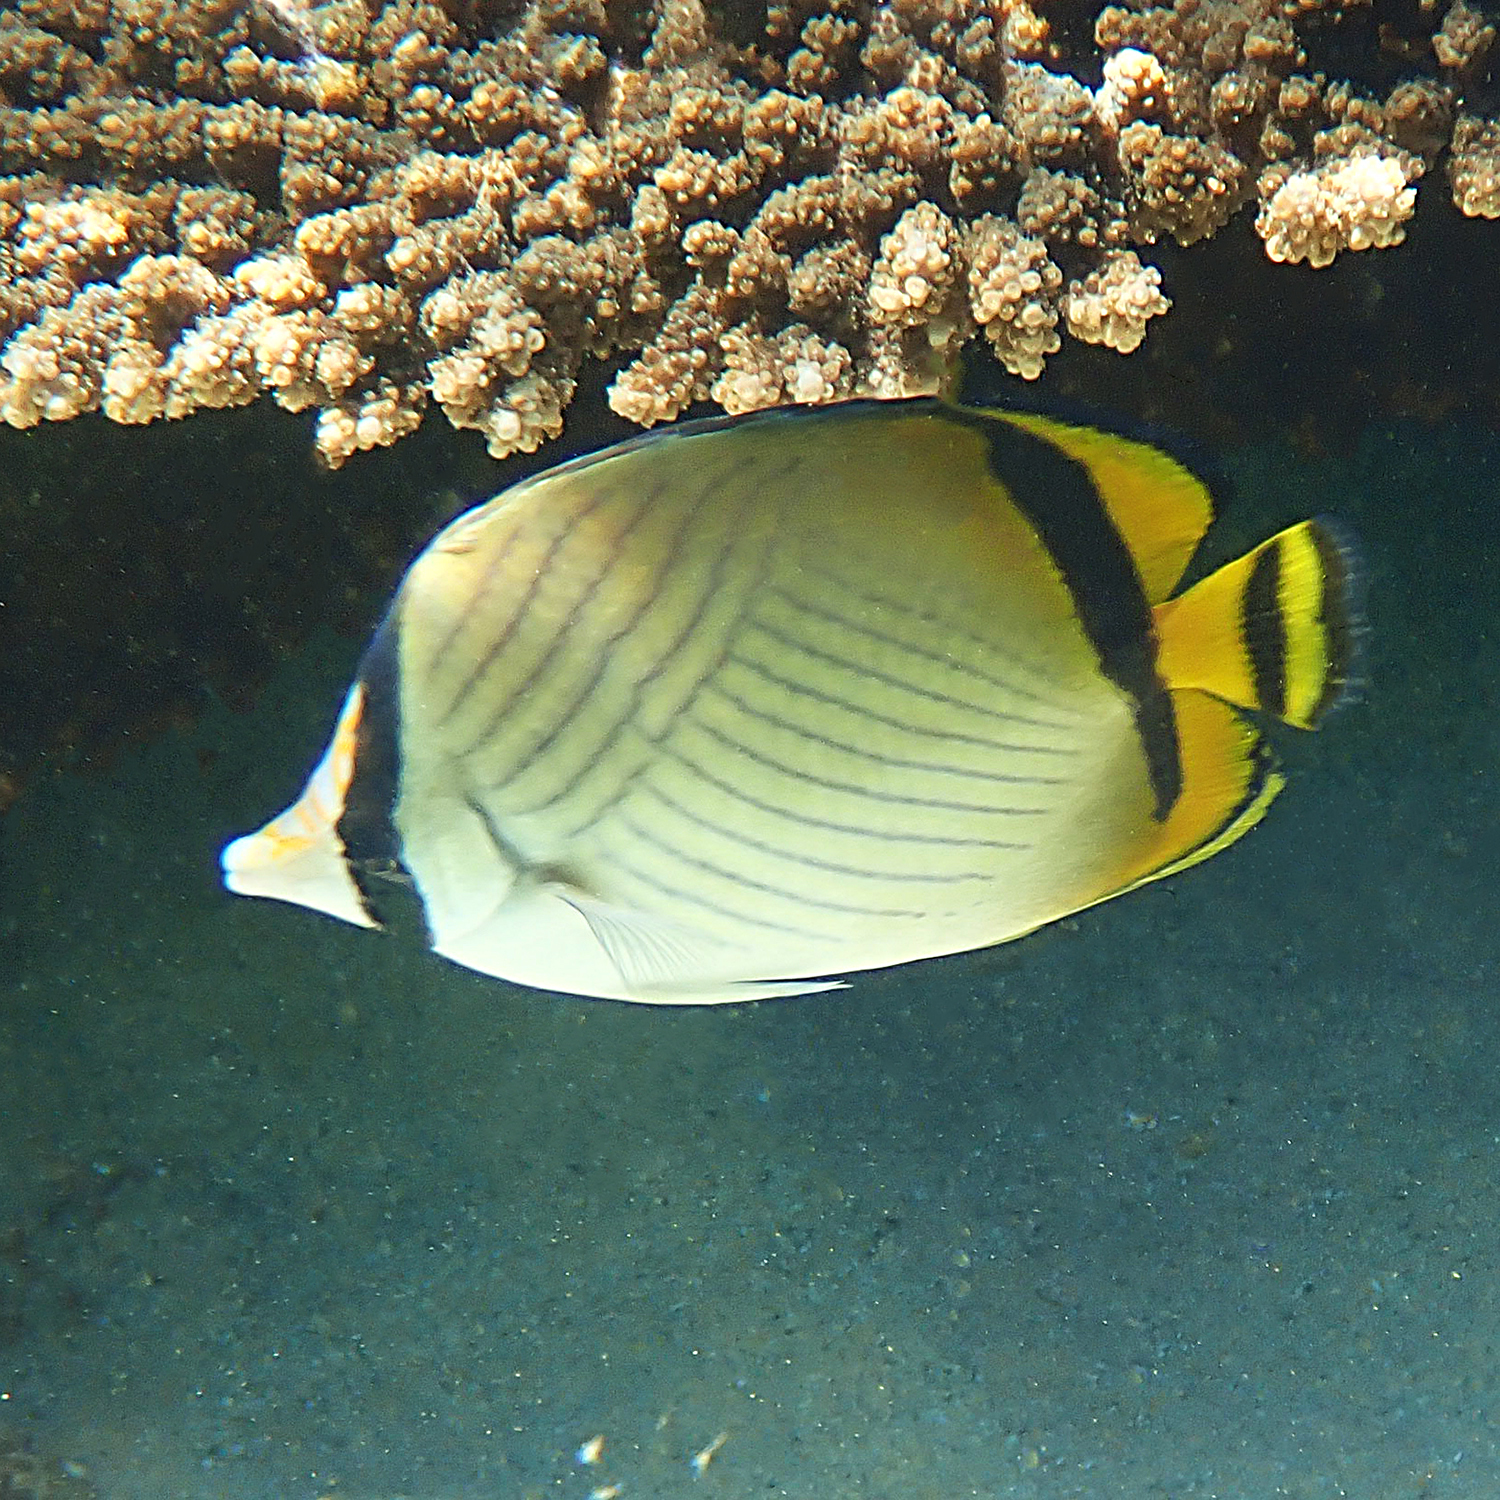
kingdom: Animalia
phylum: Chordata
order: Perciformes
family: Chaetodontidae
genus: Chaetodon
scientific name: Chaetodon vagabundus
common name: Vagabond butterflyfish
